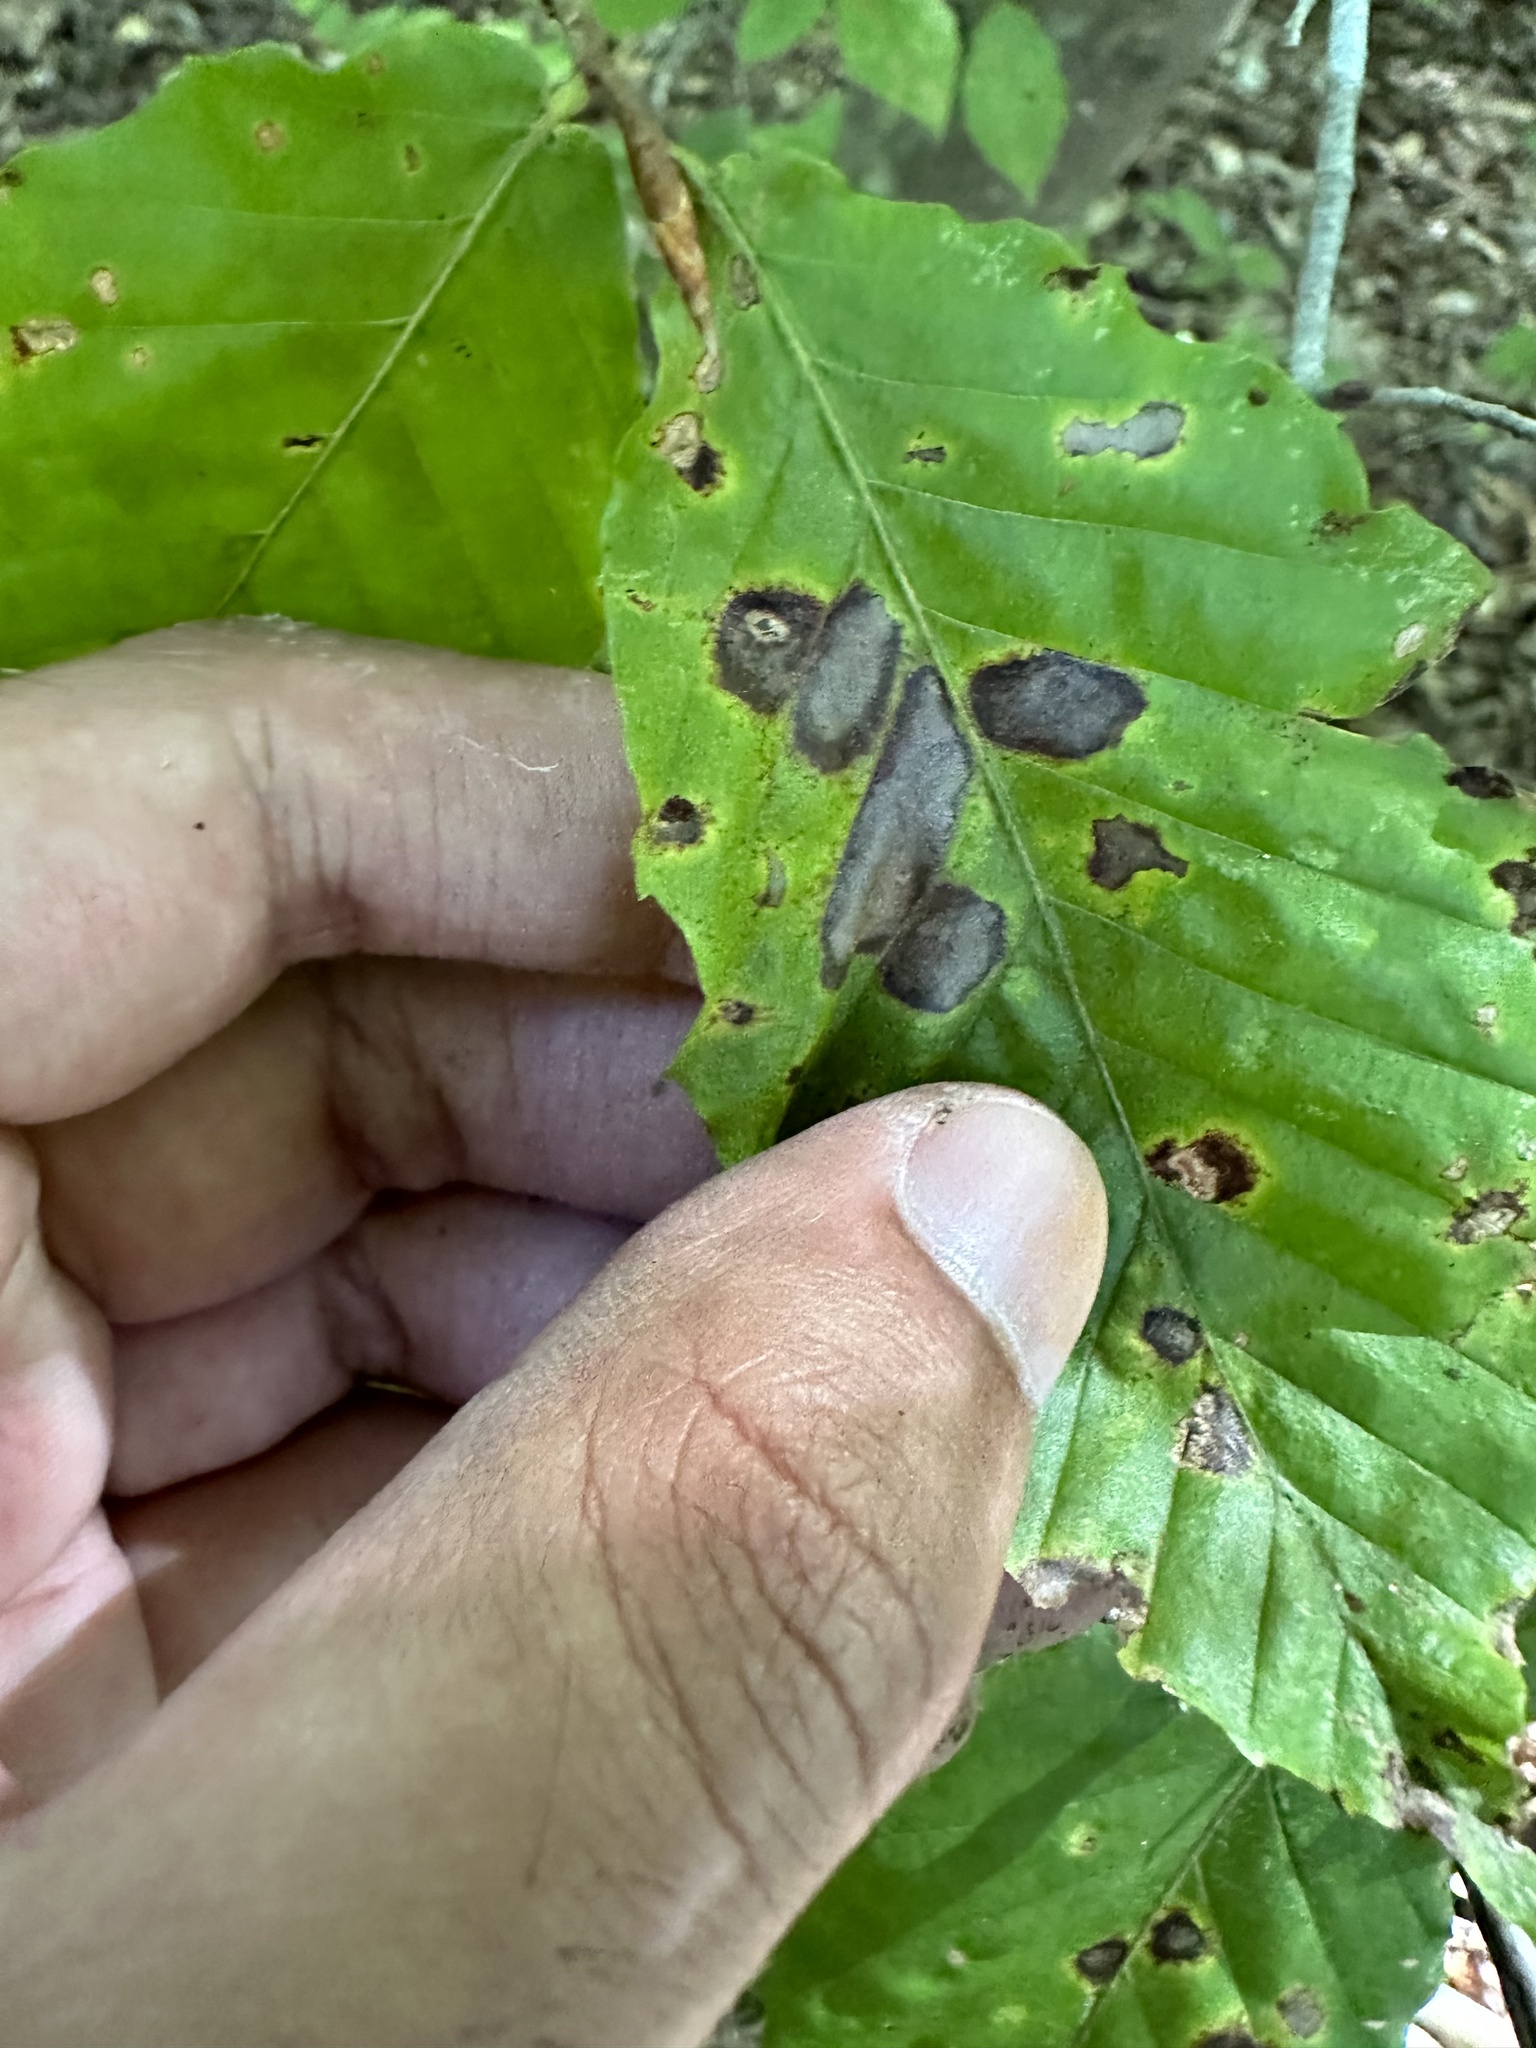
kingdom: Animalia
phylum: Arthropoda
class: Arachnida
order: Trombidiformes
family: Eriophyidae
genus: Acalitus
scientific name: Acalitus
